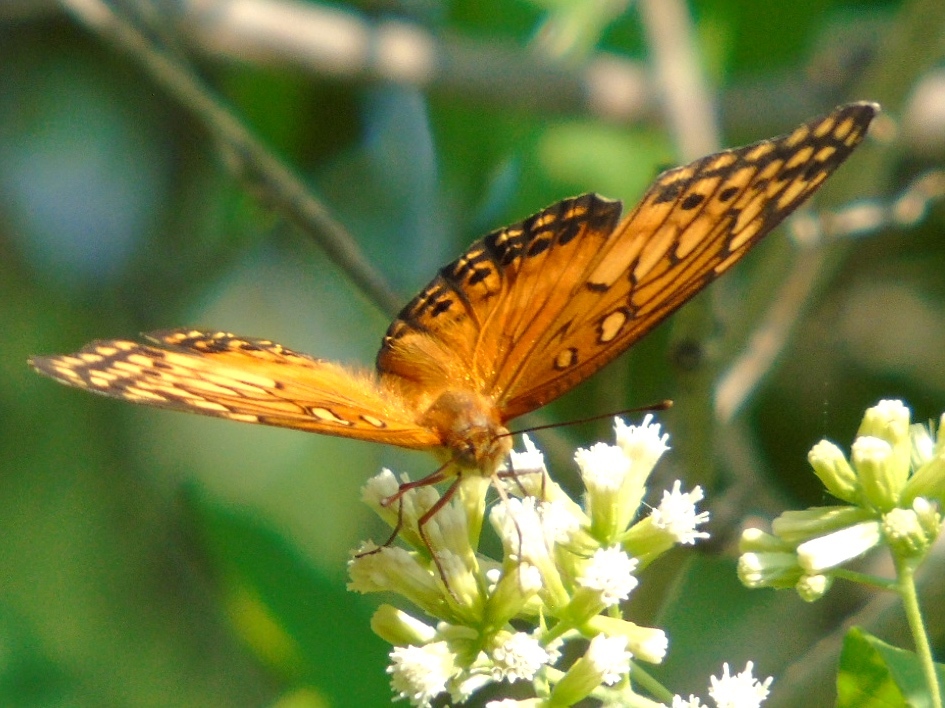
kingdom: Animalia
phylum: Arthropoda
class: Insecta
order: Lepidoptera
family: Nymphalidae
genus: Euptoieta
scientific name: Euptoieta hegesia
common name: Mexican fritillary
